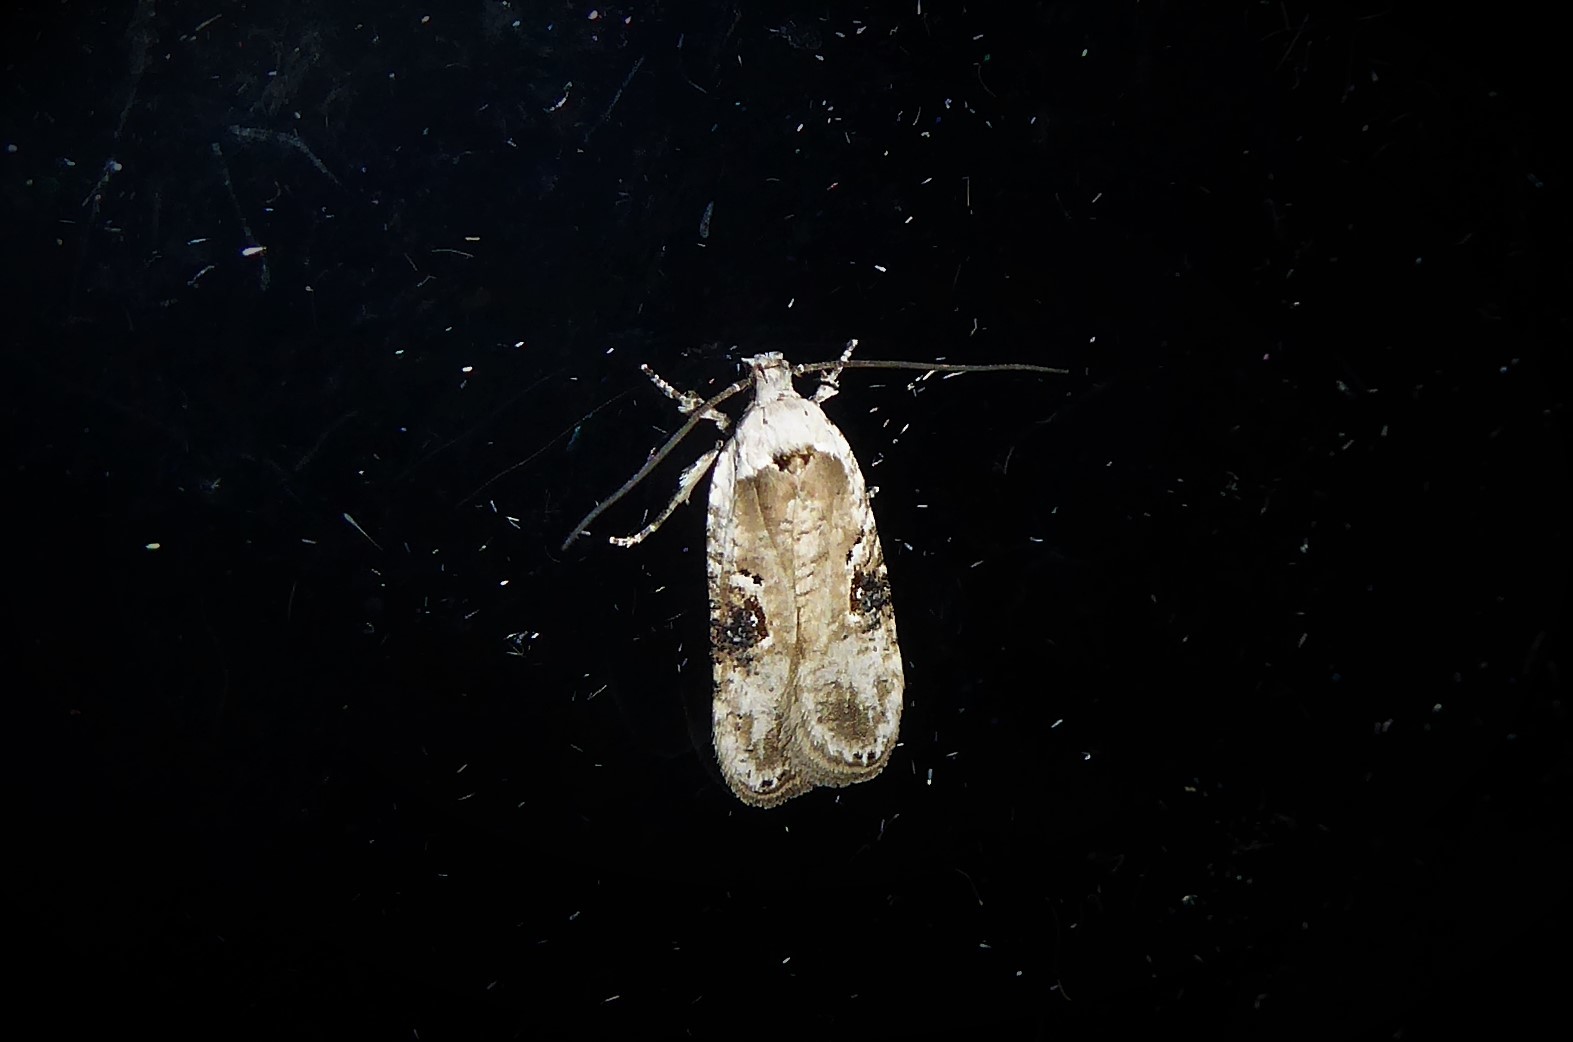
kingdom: Animalia
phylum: Arthropoda
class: Insecta
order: Lepidoptera
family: Depressariidae
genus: Agonopterix
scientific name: Agonopterix alstroemeriana
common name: Moth
